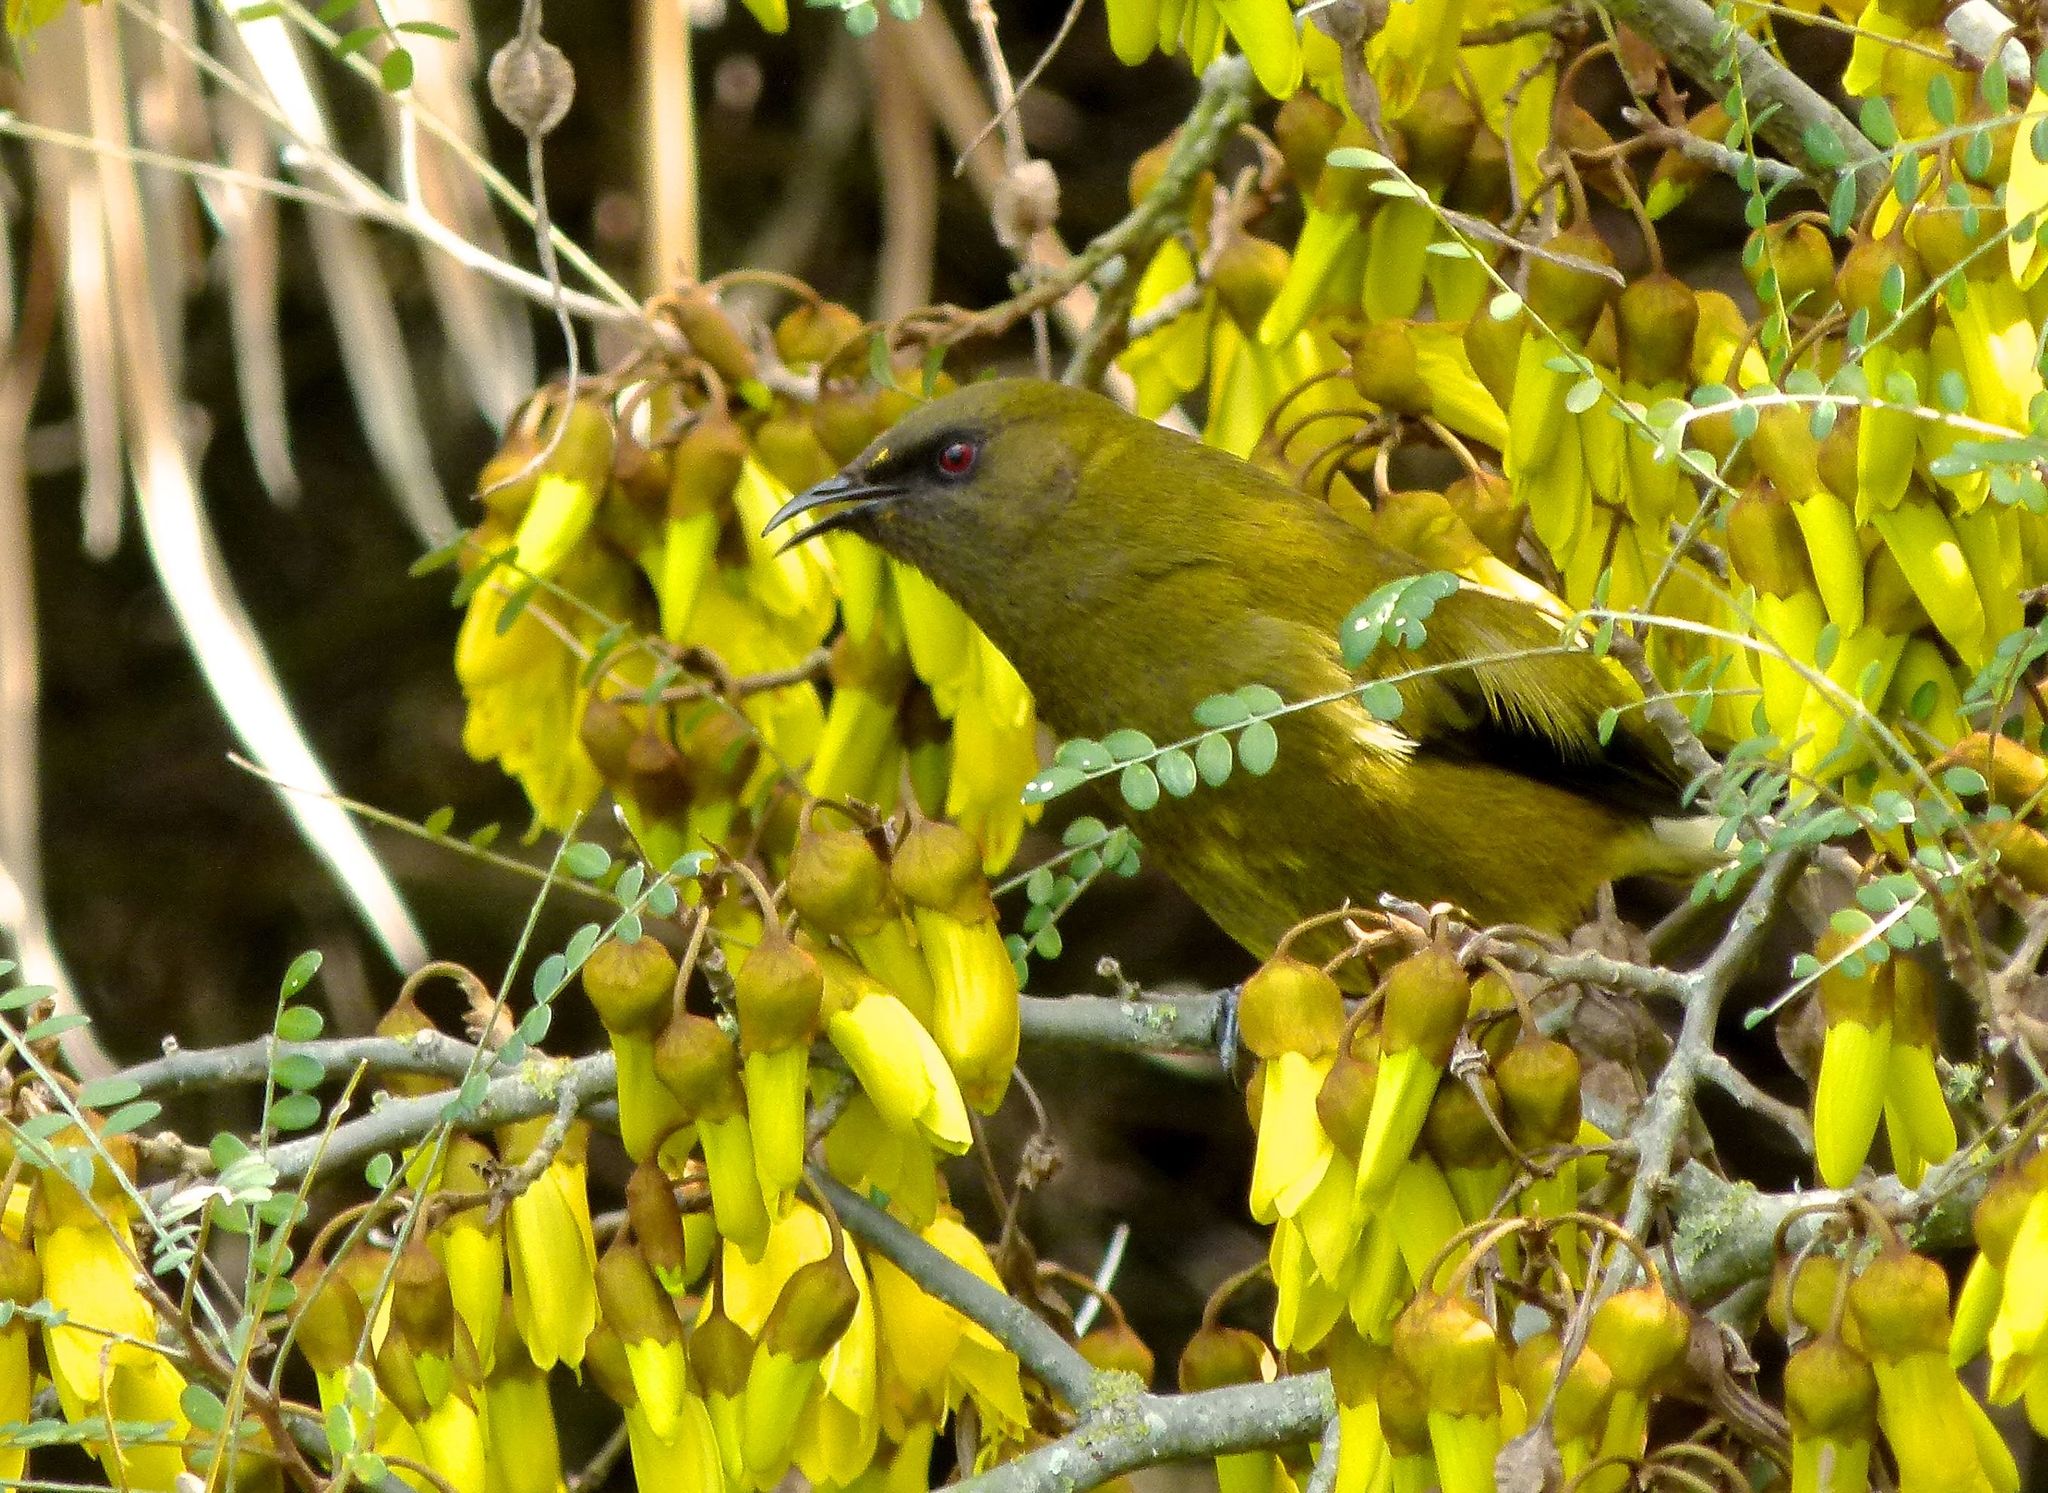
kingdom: Animalia
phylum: Chordata
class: Aves
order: Passeriformes
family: Meliphagidae
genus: Anthornis
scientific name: Anthornis melanura
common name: New zealand bellbird
